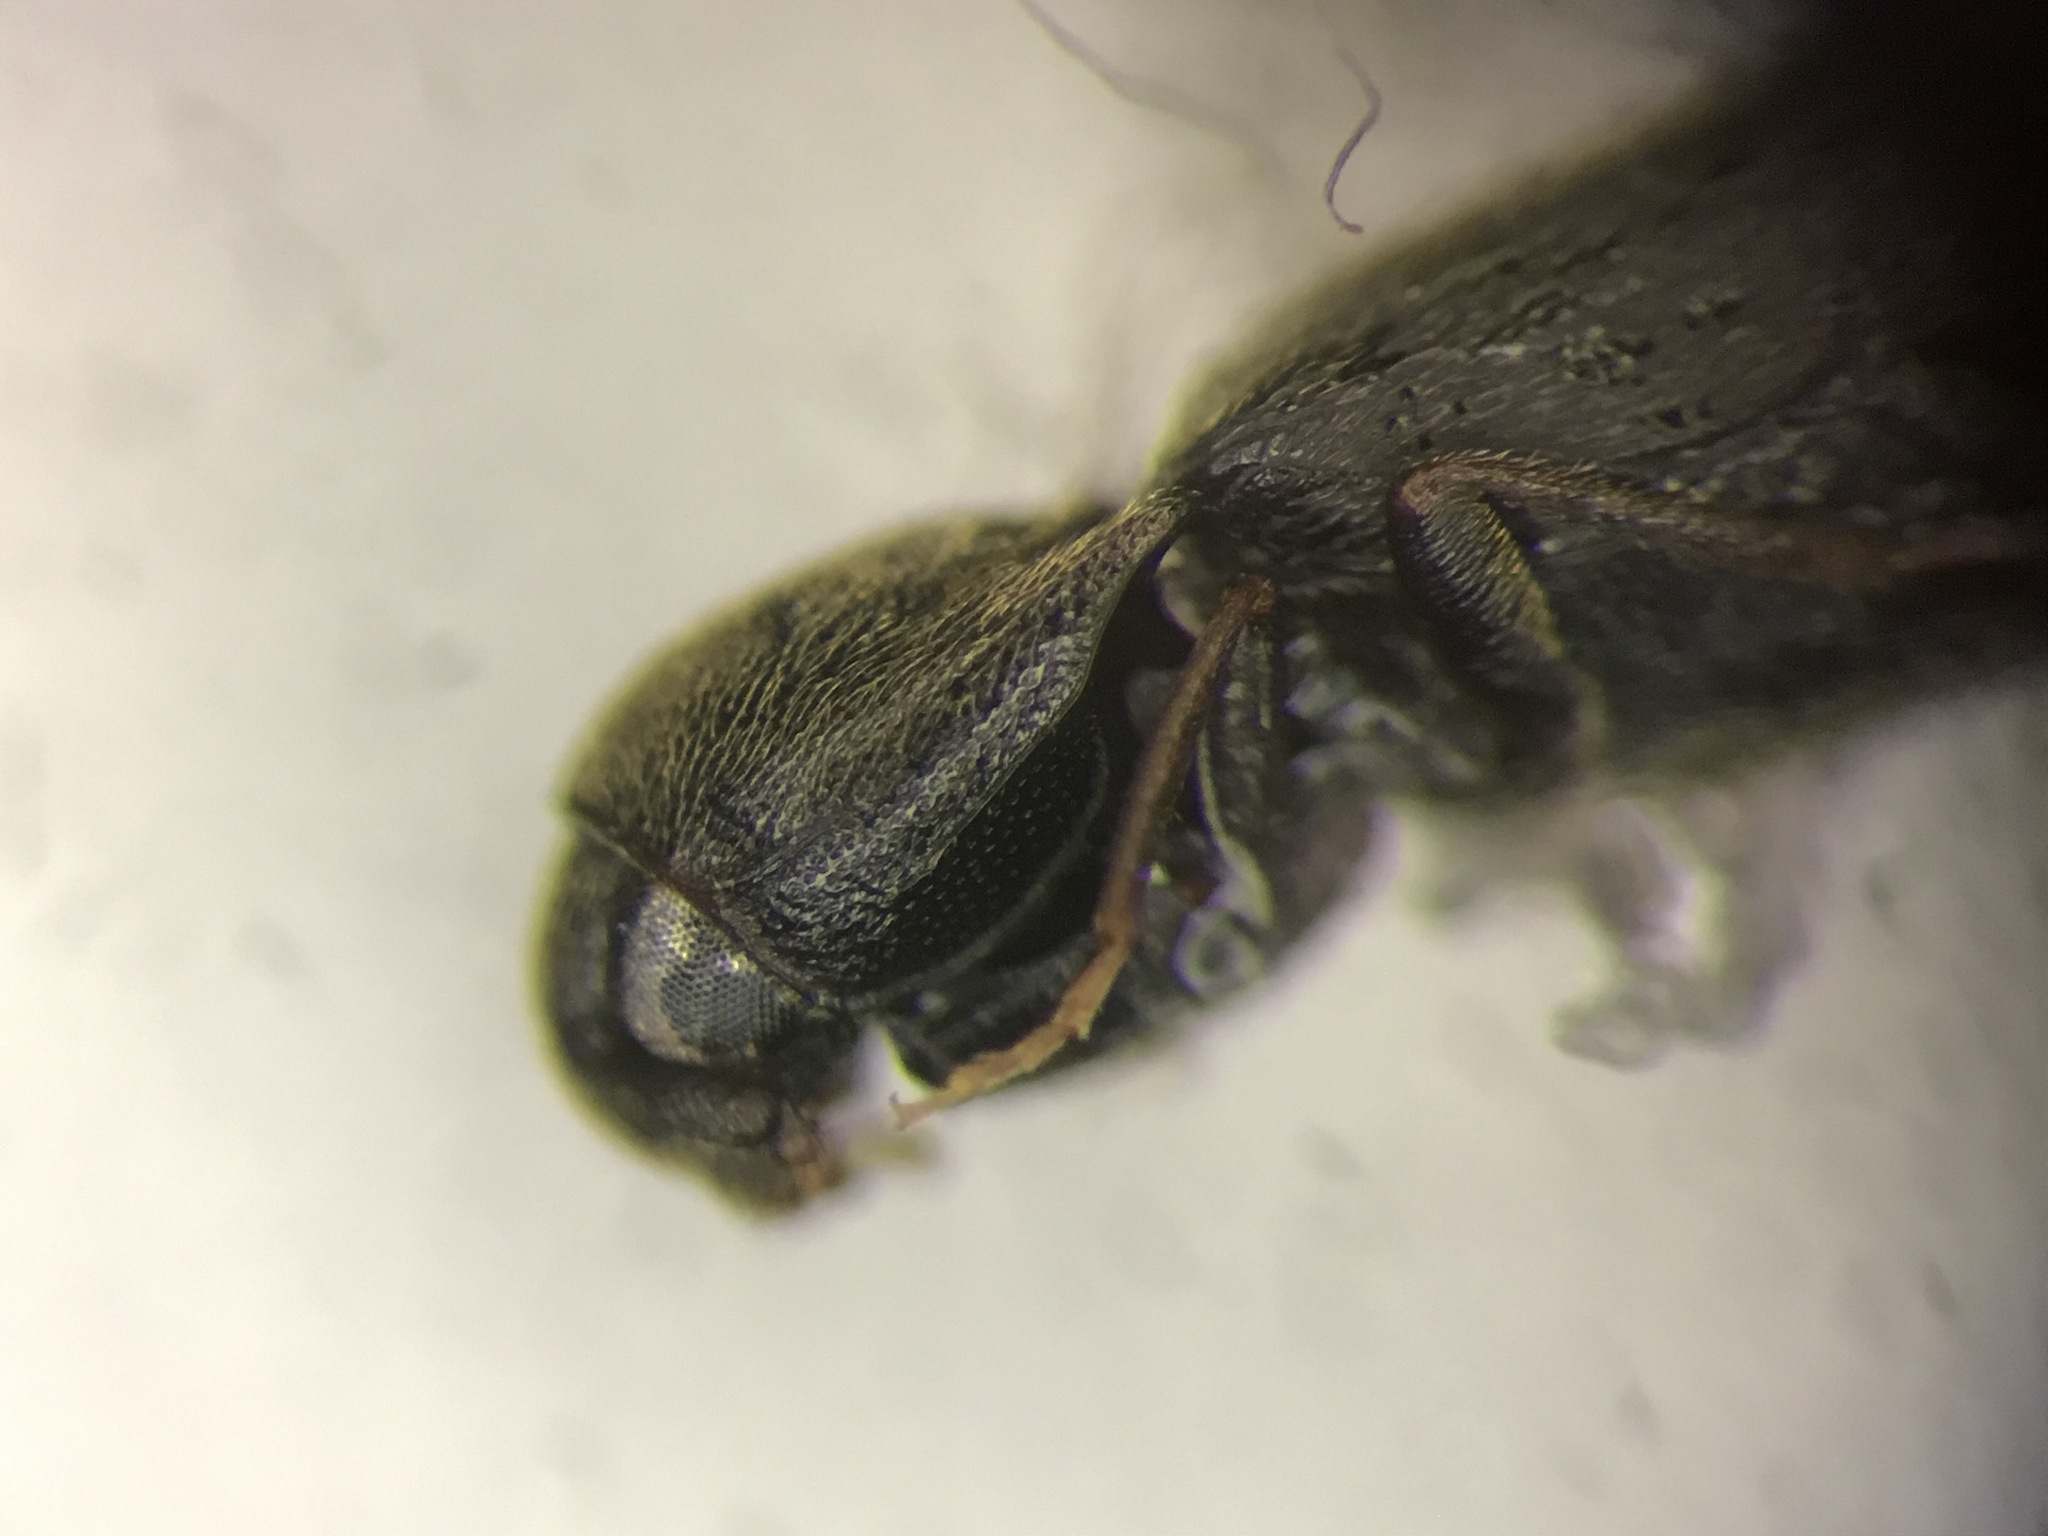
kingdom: Animalia
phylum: Arthropoda
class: Insecta
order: Coleoptera
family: Eucnemidae
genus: Microrhagus
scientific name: Microrhagus subsinuatus
